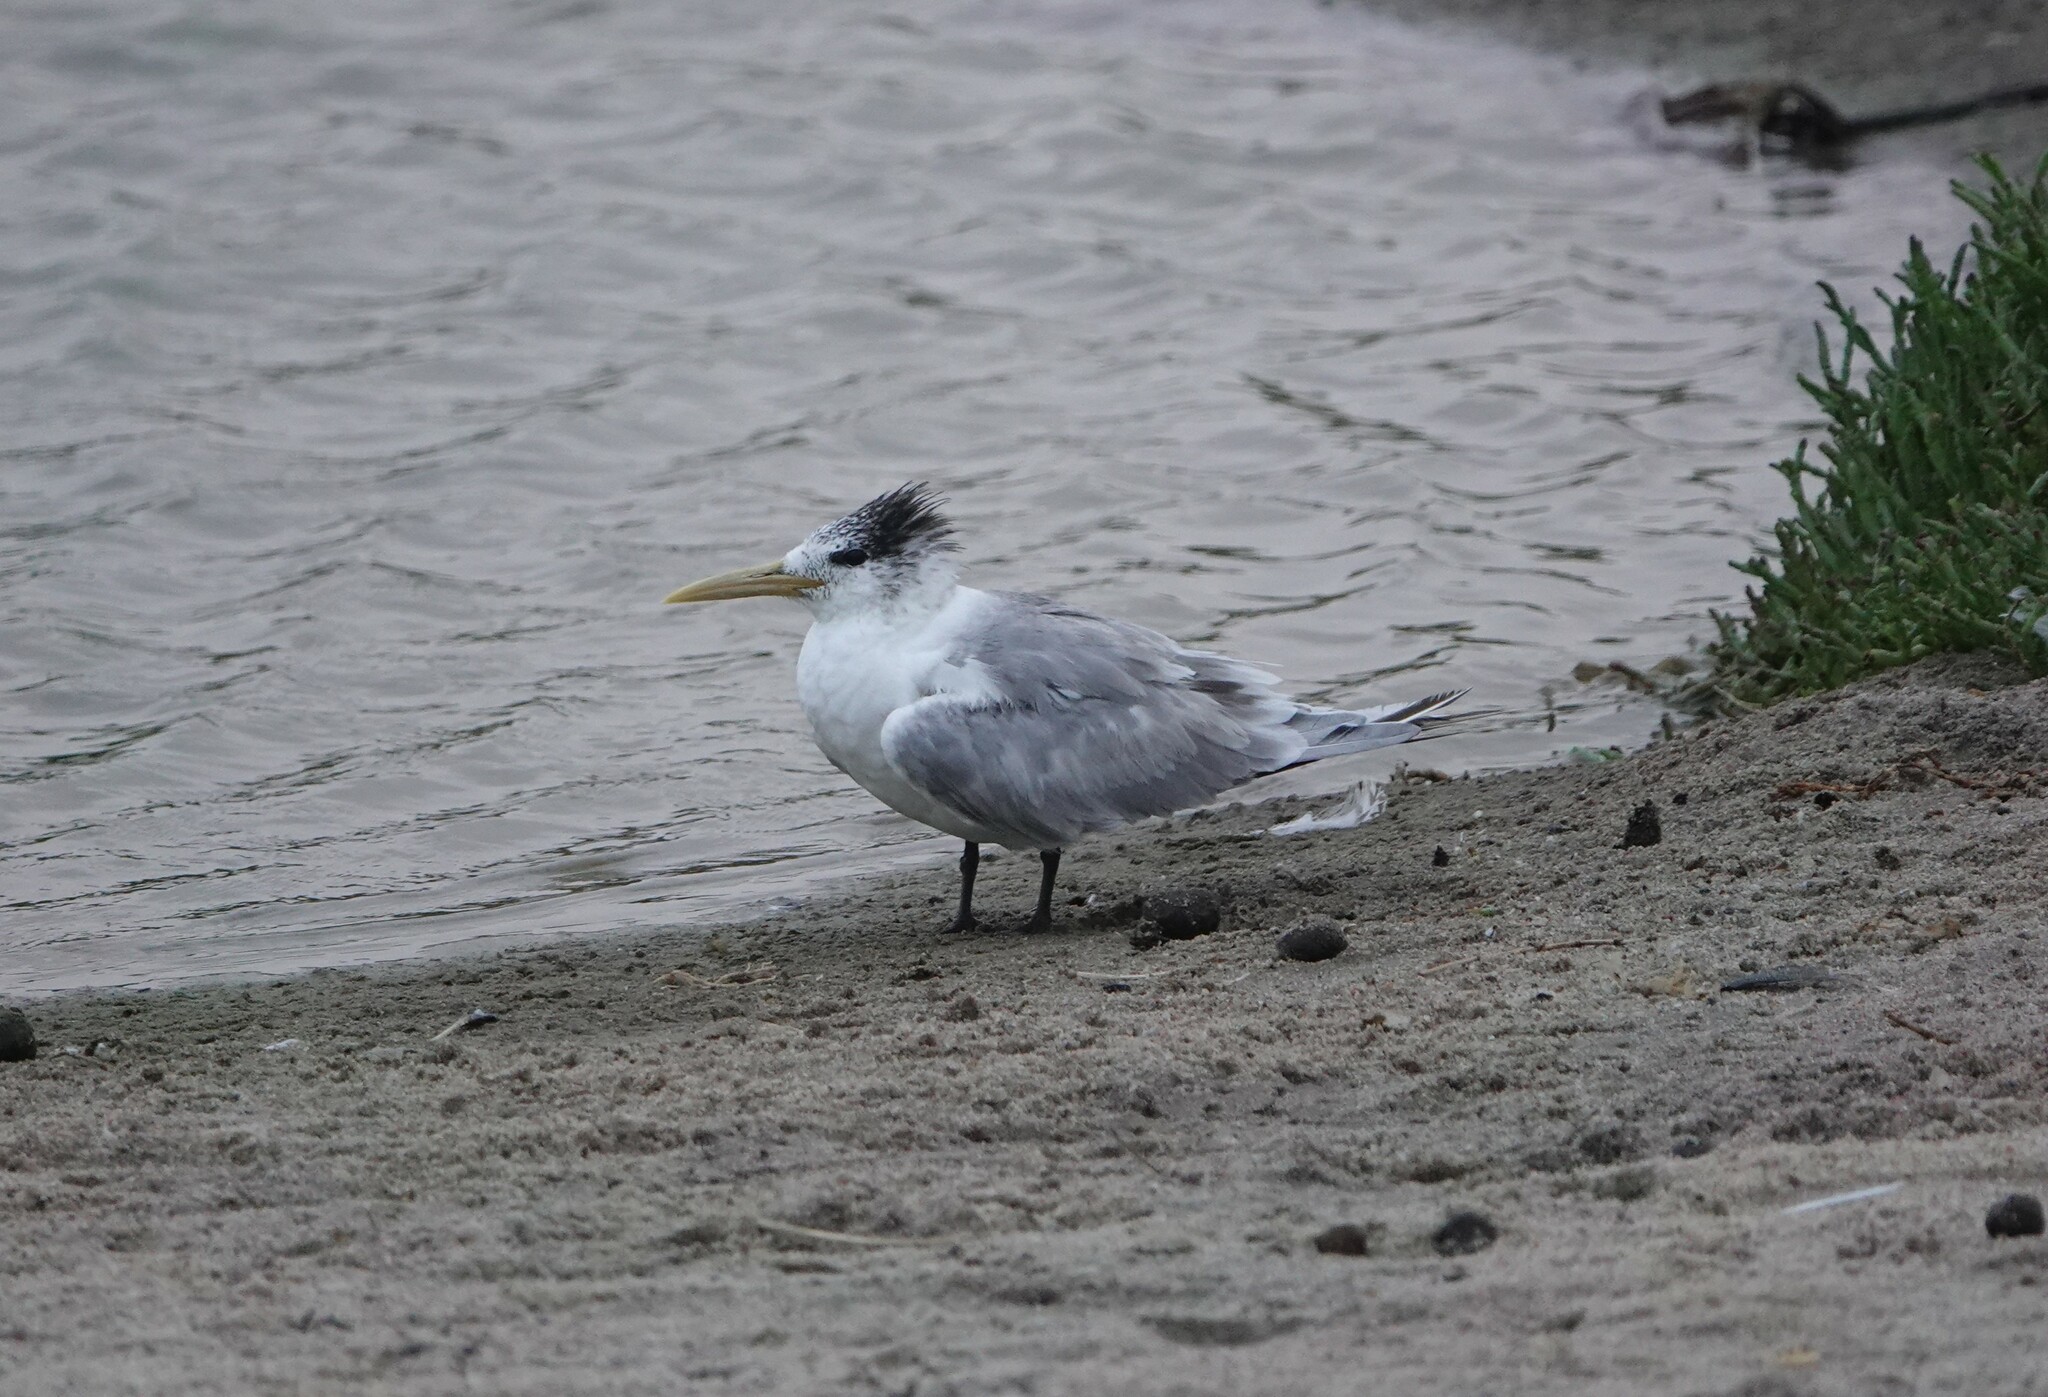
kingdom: Animalia
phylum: Chordata
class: Aves
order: Charadriiformes
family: Laridae
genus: Thalasseus
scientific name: Thalasseus bergii
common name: Greater crested tern
